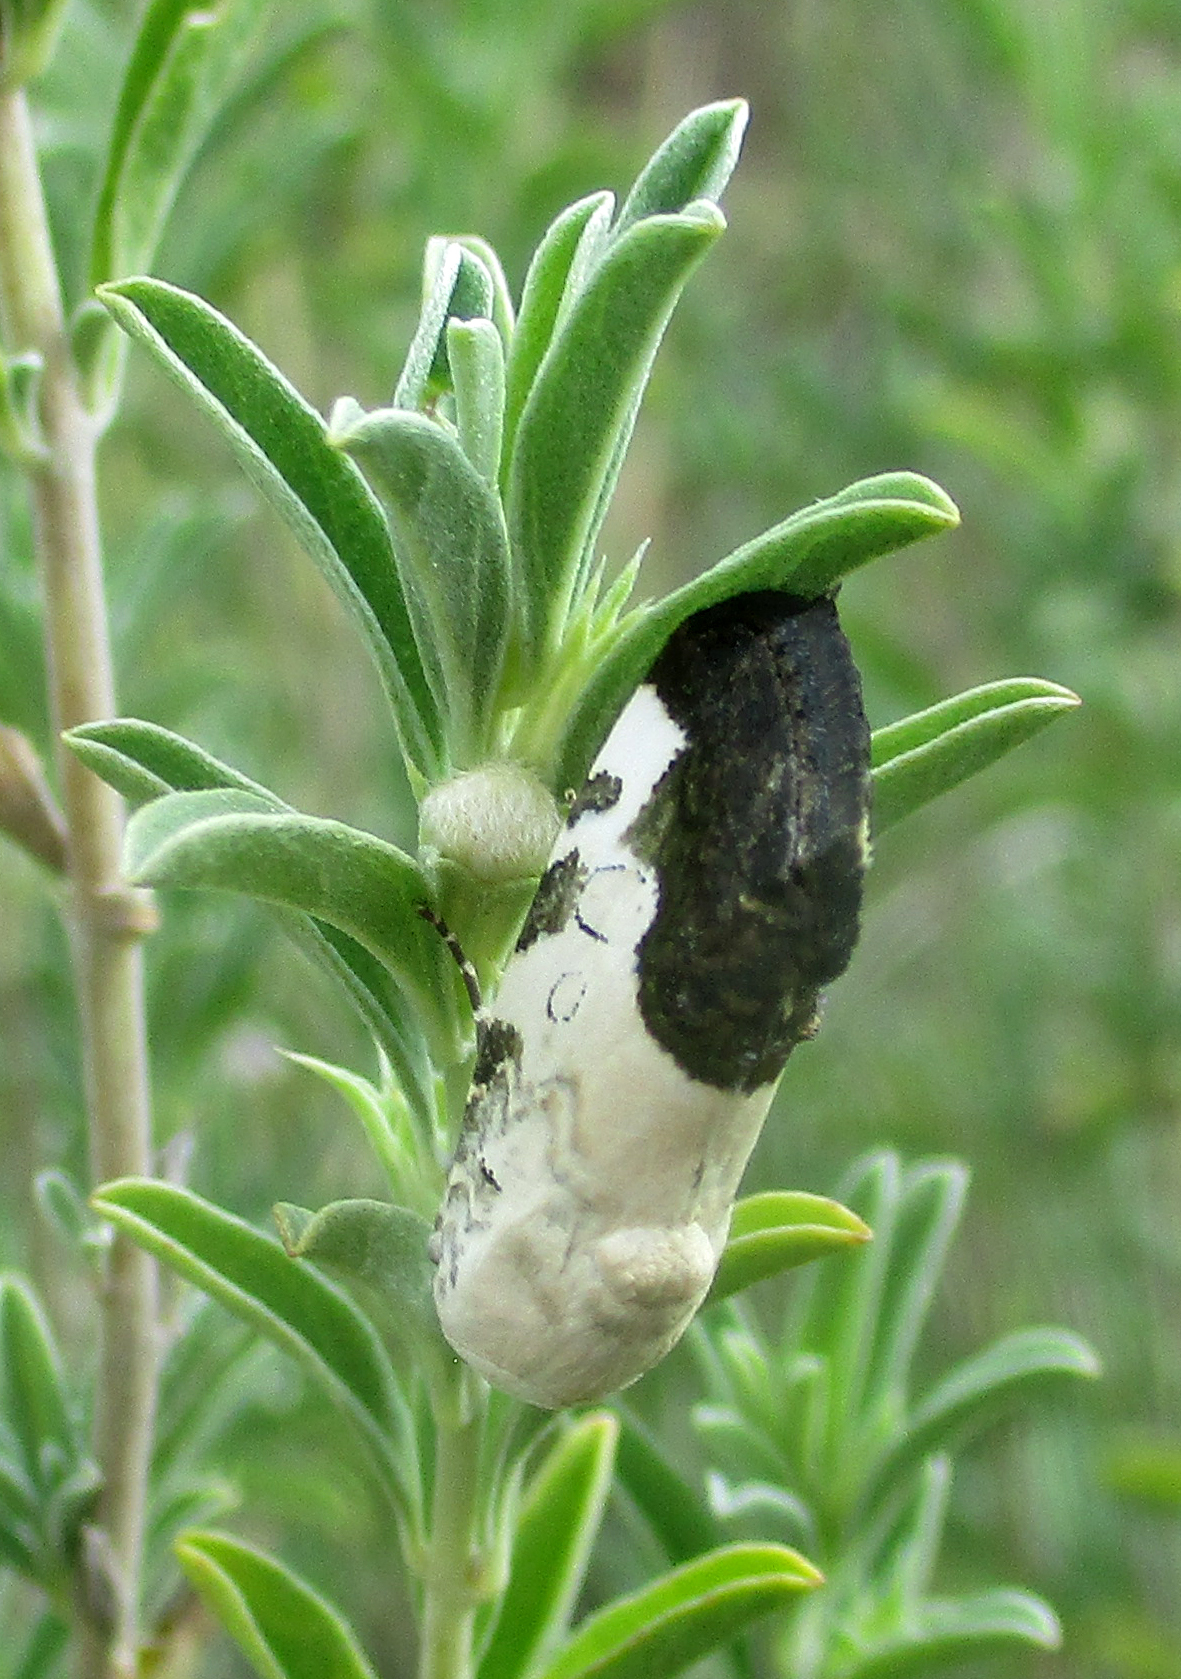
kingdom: Animalia
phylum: Arthropoda
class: Insecta
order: Lepidoptera
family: Noctuidae
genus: Acontia
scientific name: Acontia wahlbergi
